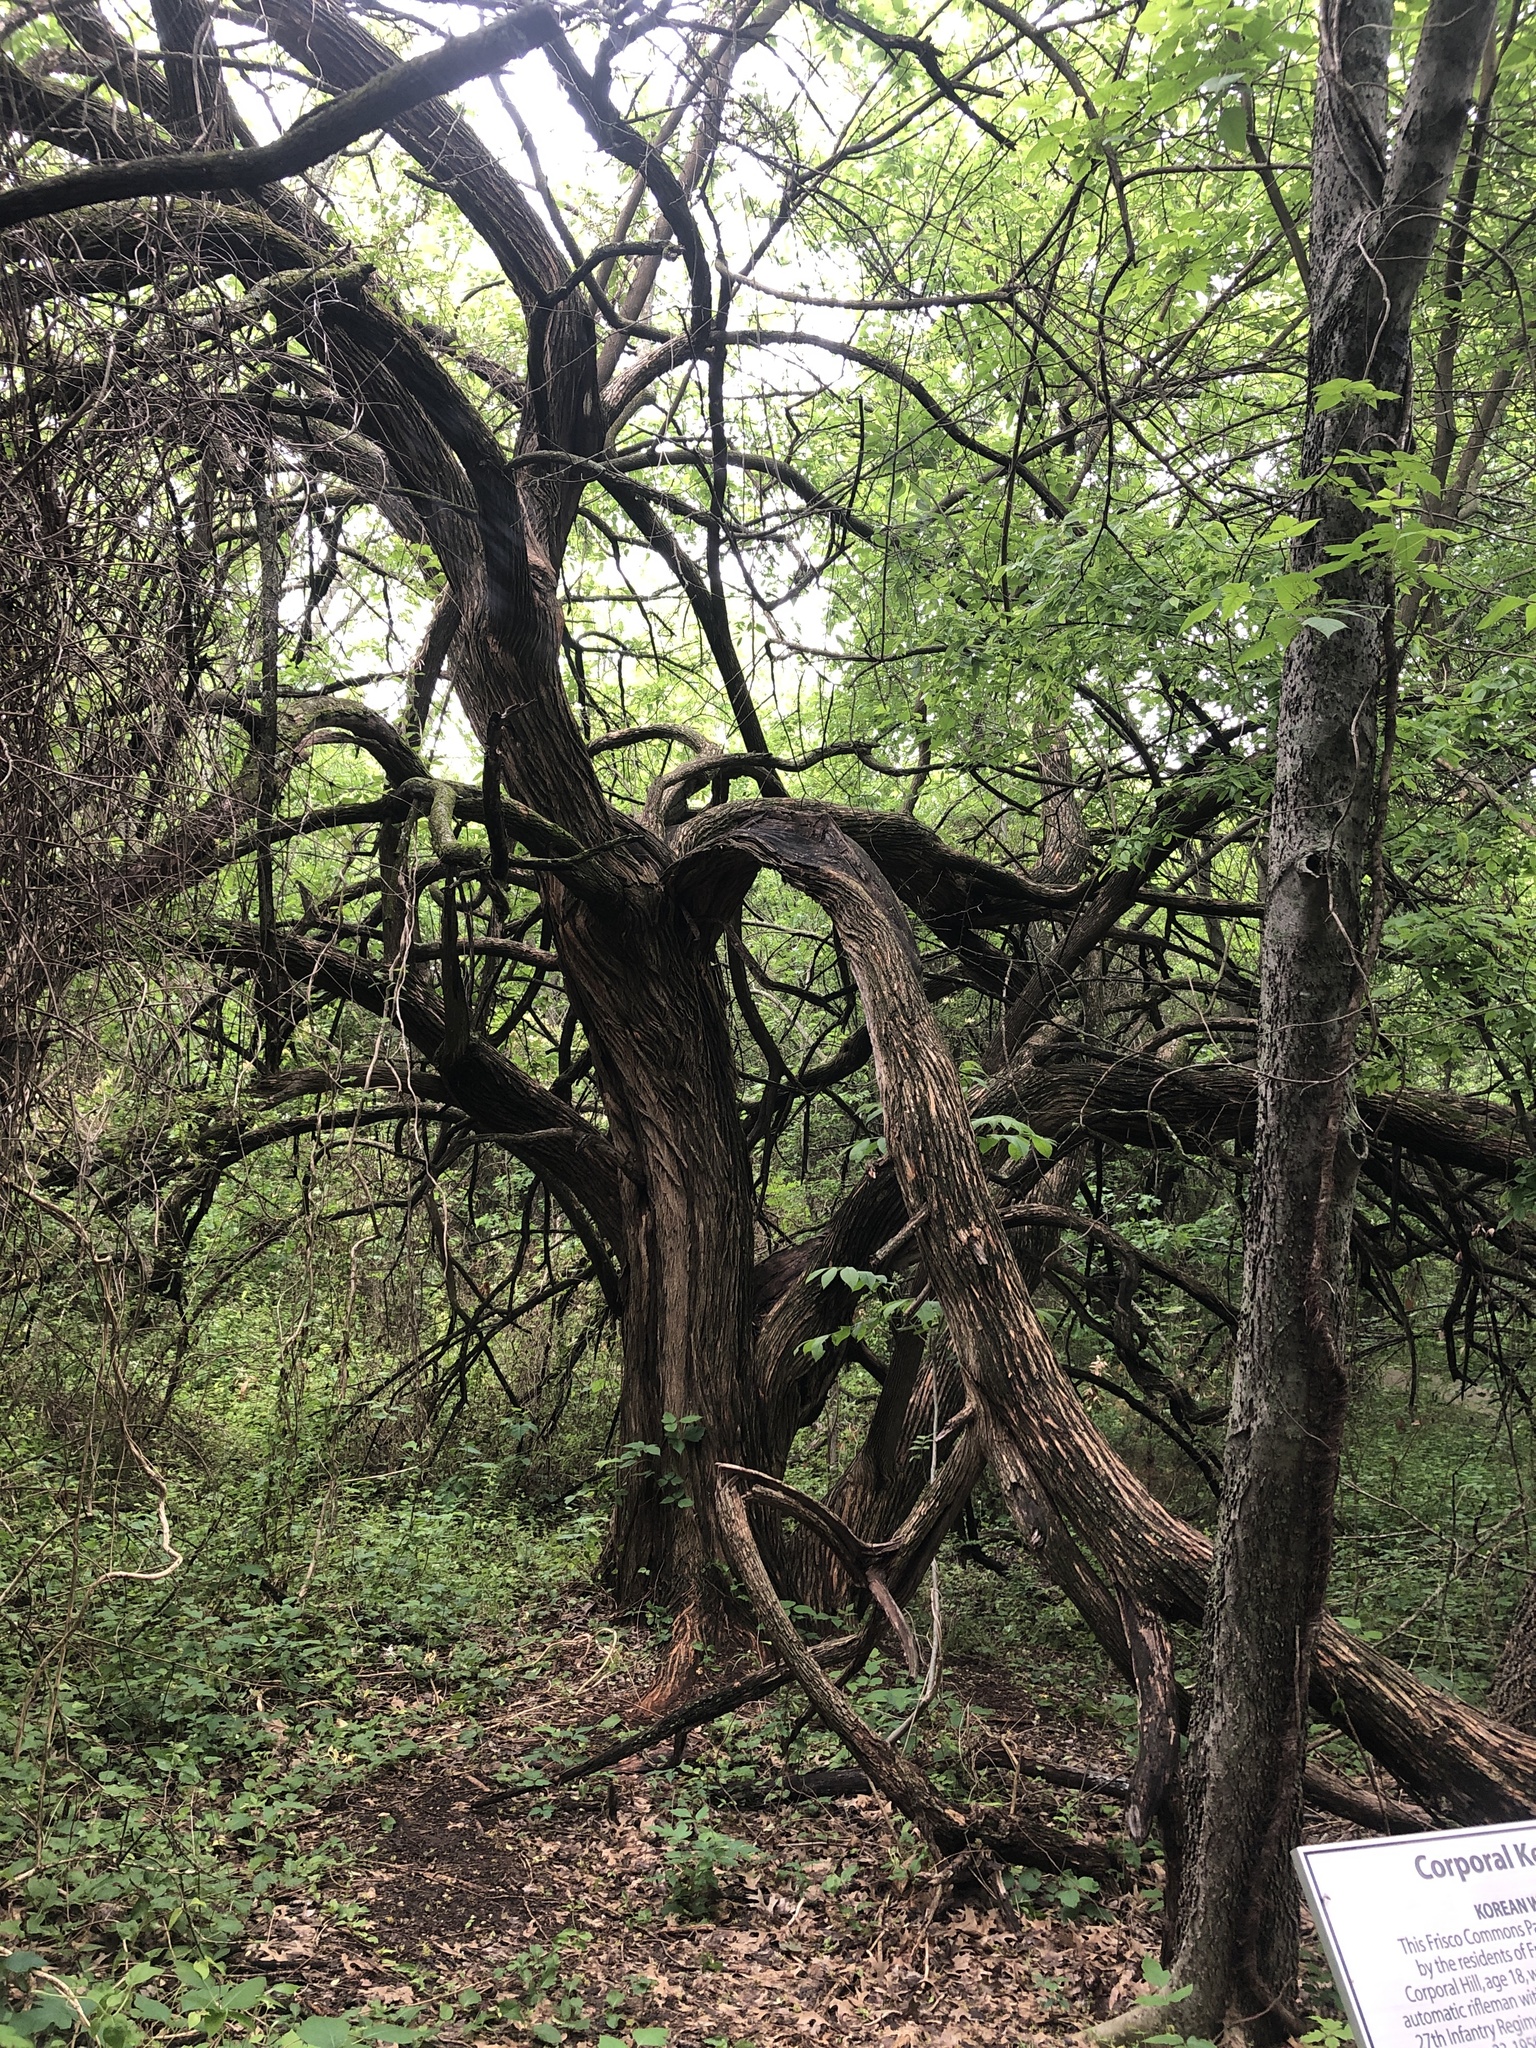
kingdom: Plantae
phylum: Tracheophyta
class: Magnoliopsida
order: Rosales
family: Moraceae
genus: Maclura
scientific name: Maclura pomifera
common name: Osage-orange
